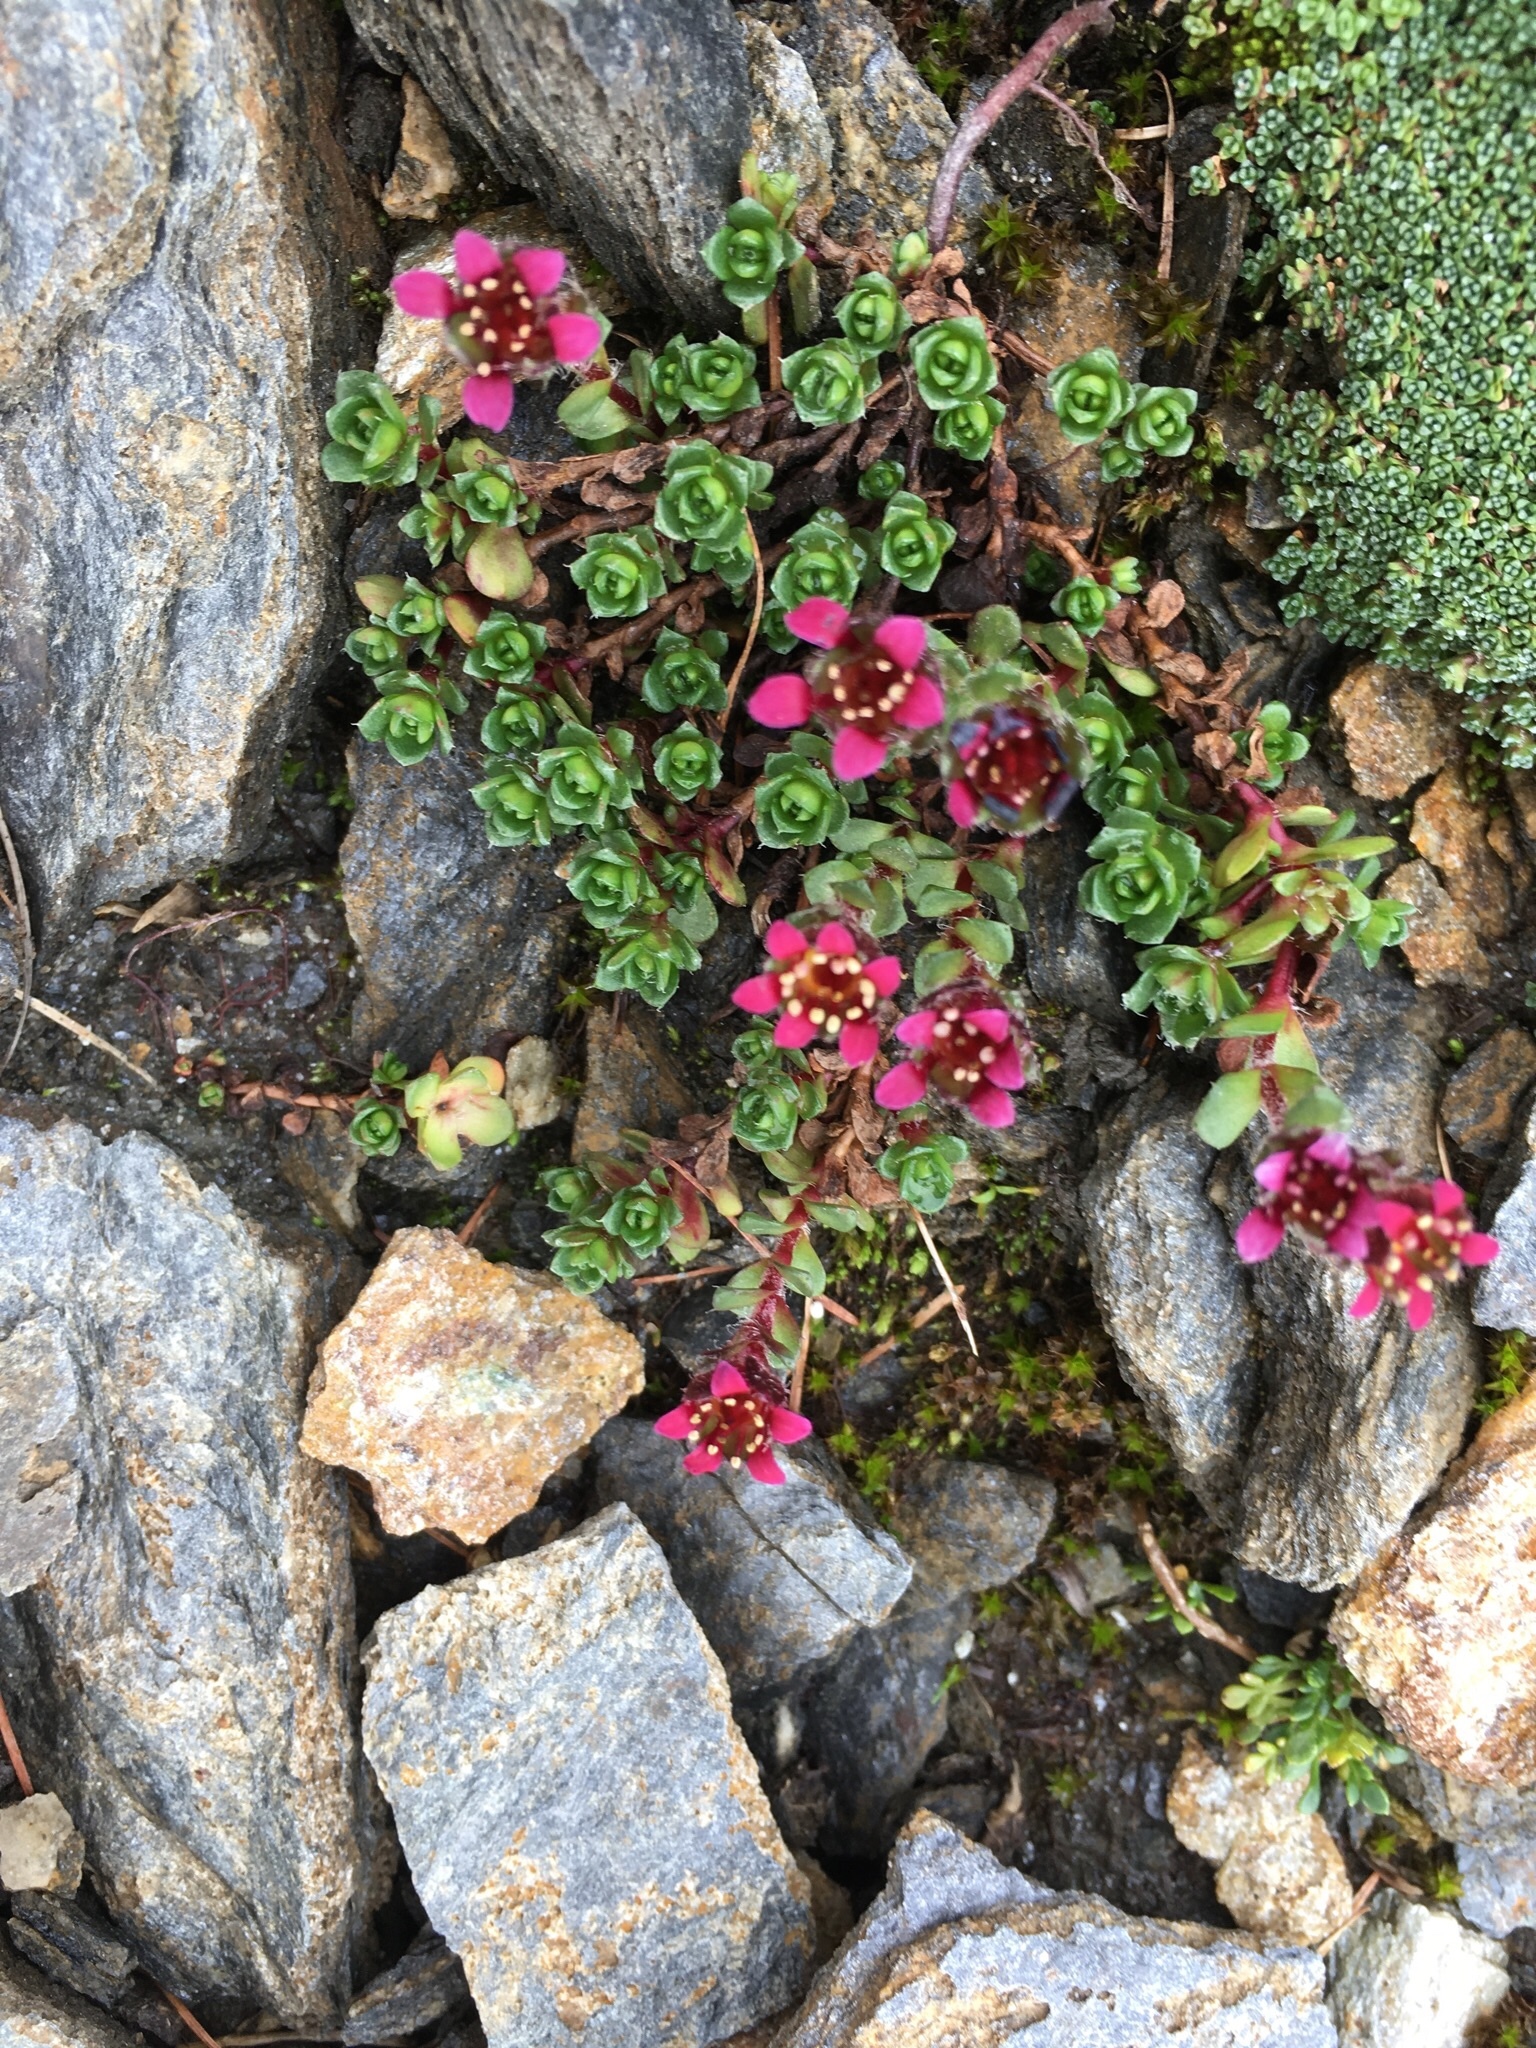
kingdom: Plantae
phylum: Tracheophyta
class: Magnoliopsida
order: Saxifragales
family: Saxifragaceae
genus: Saxifraga
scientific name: Saxifraga biflora
